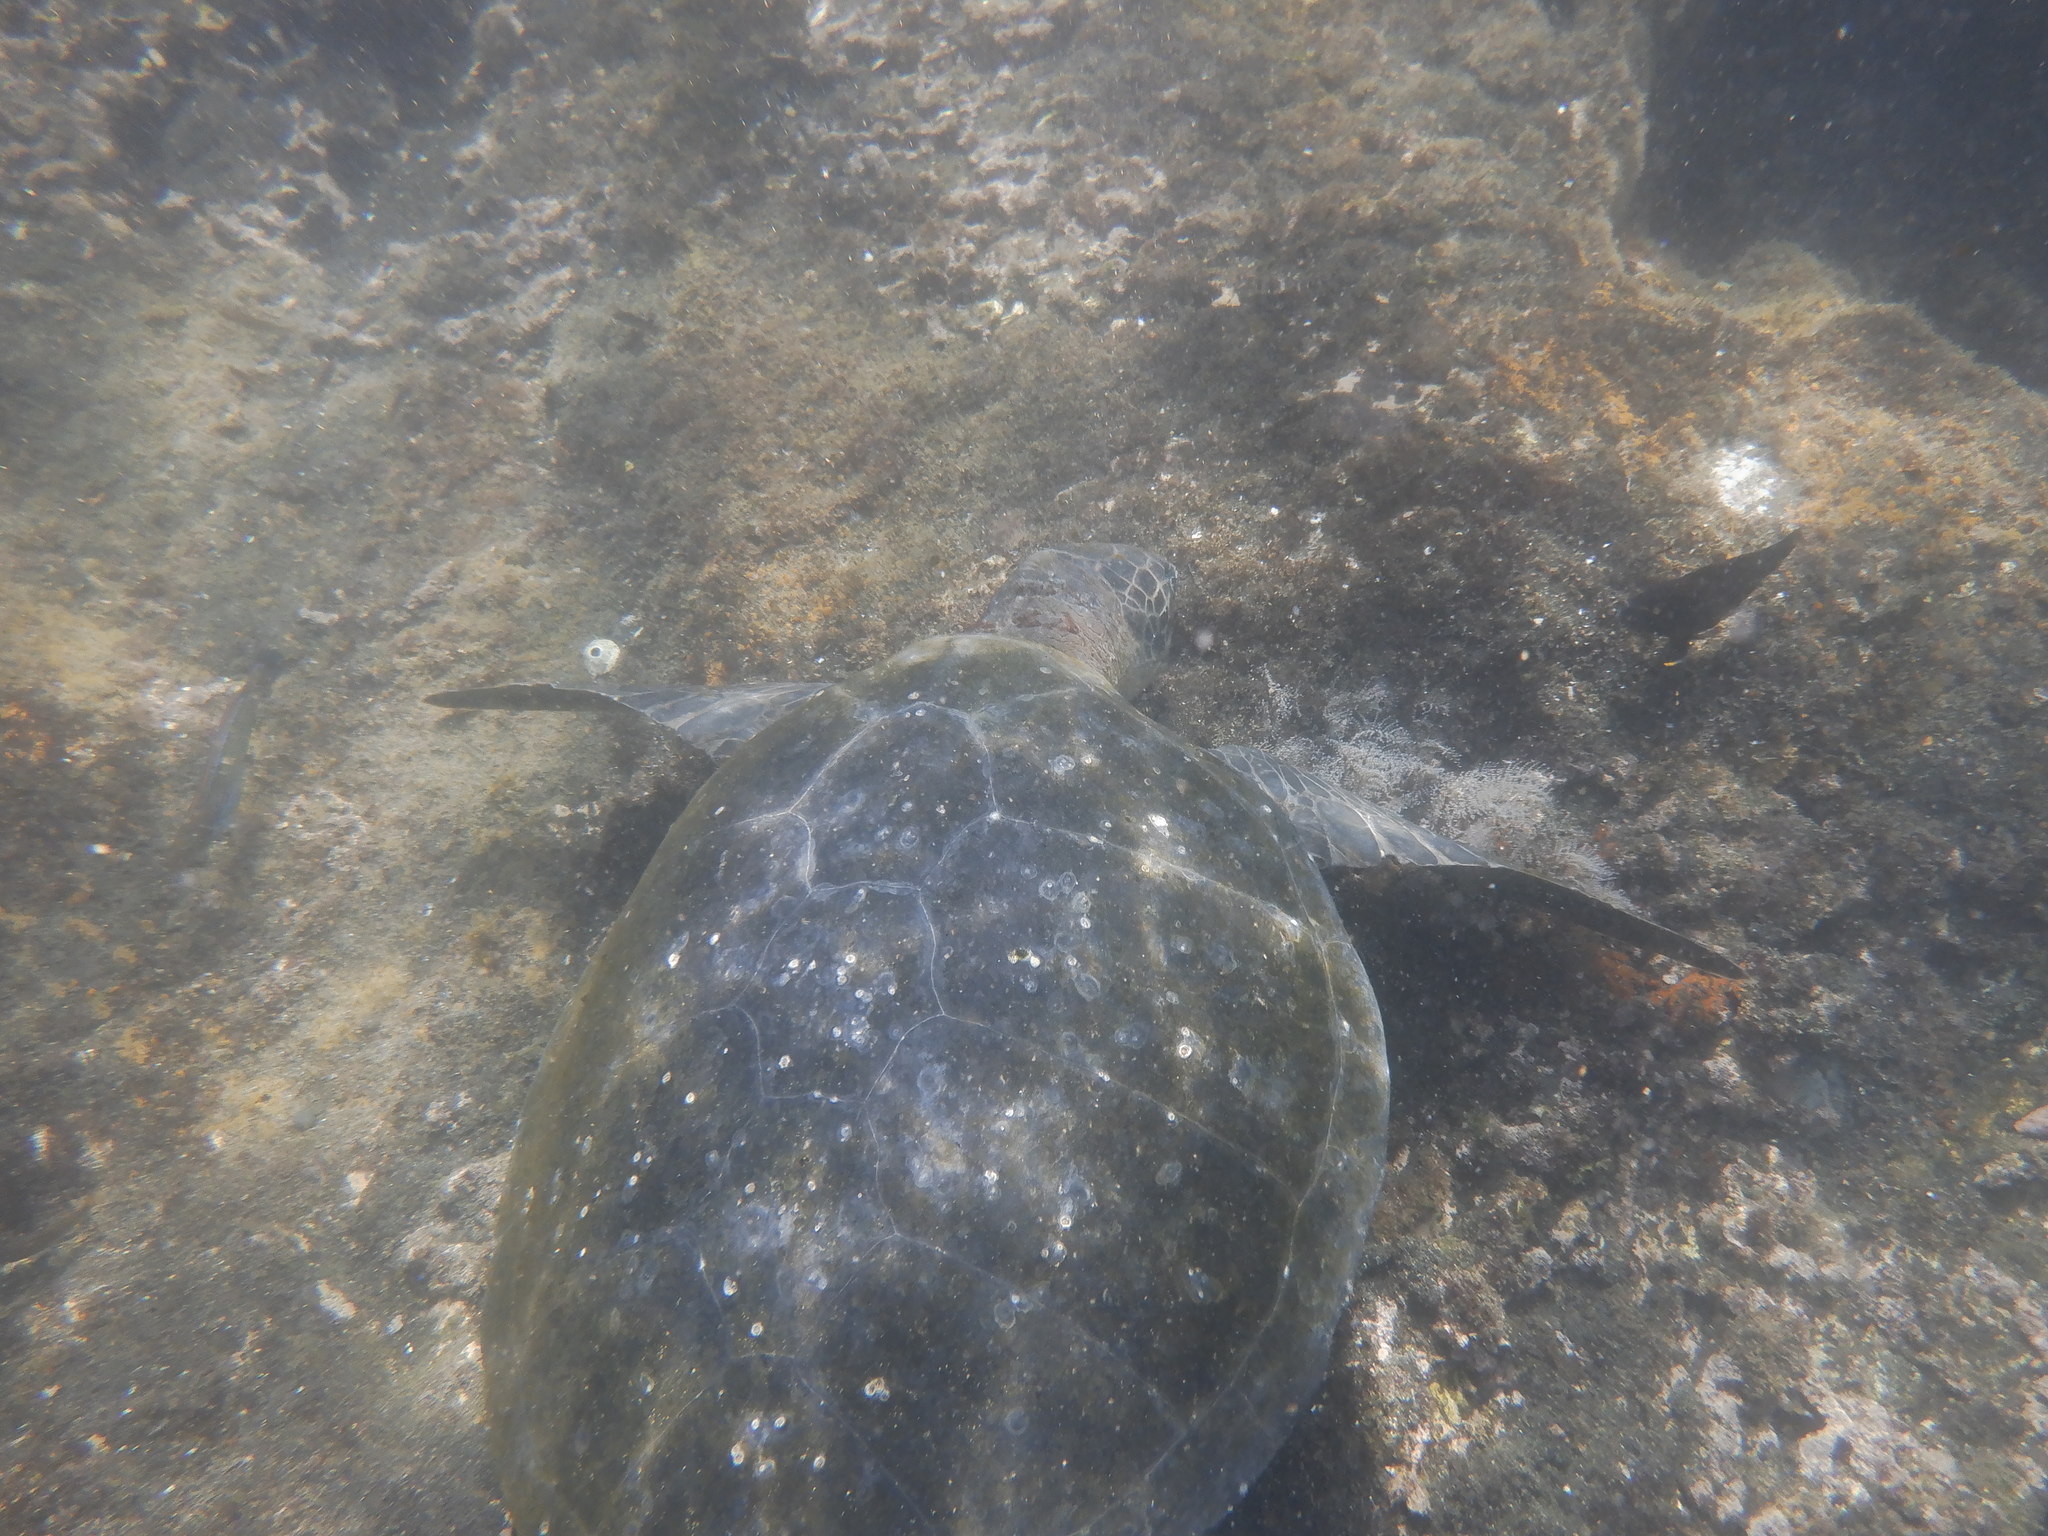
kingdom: Animalia
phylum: Chordata
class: Testudines
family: Cheloniidae
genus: Chelonia
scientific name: Chelonia mydas
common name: Green turtle
